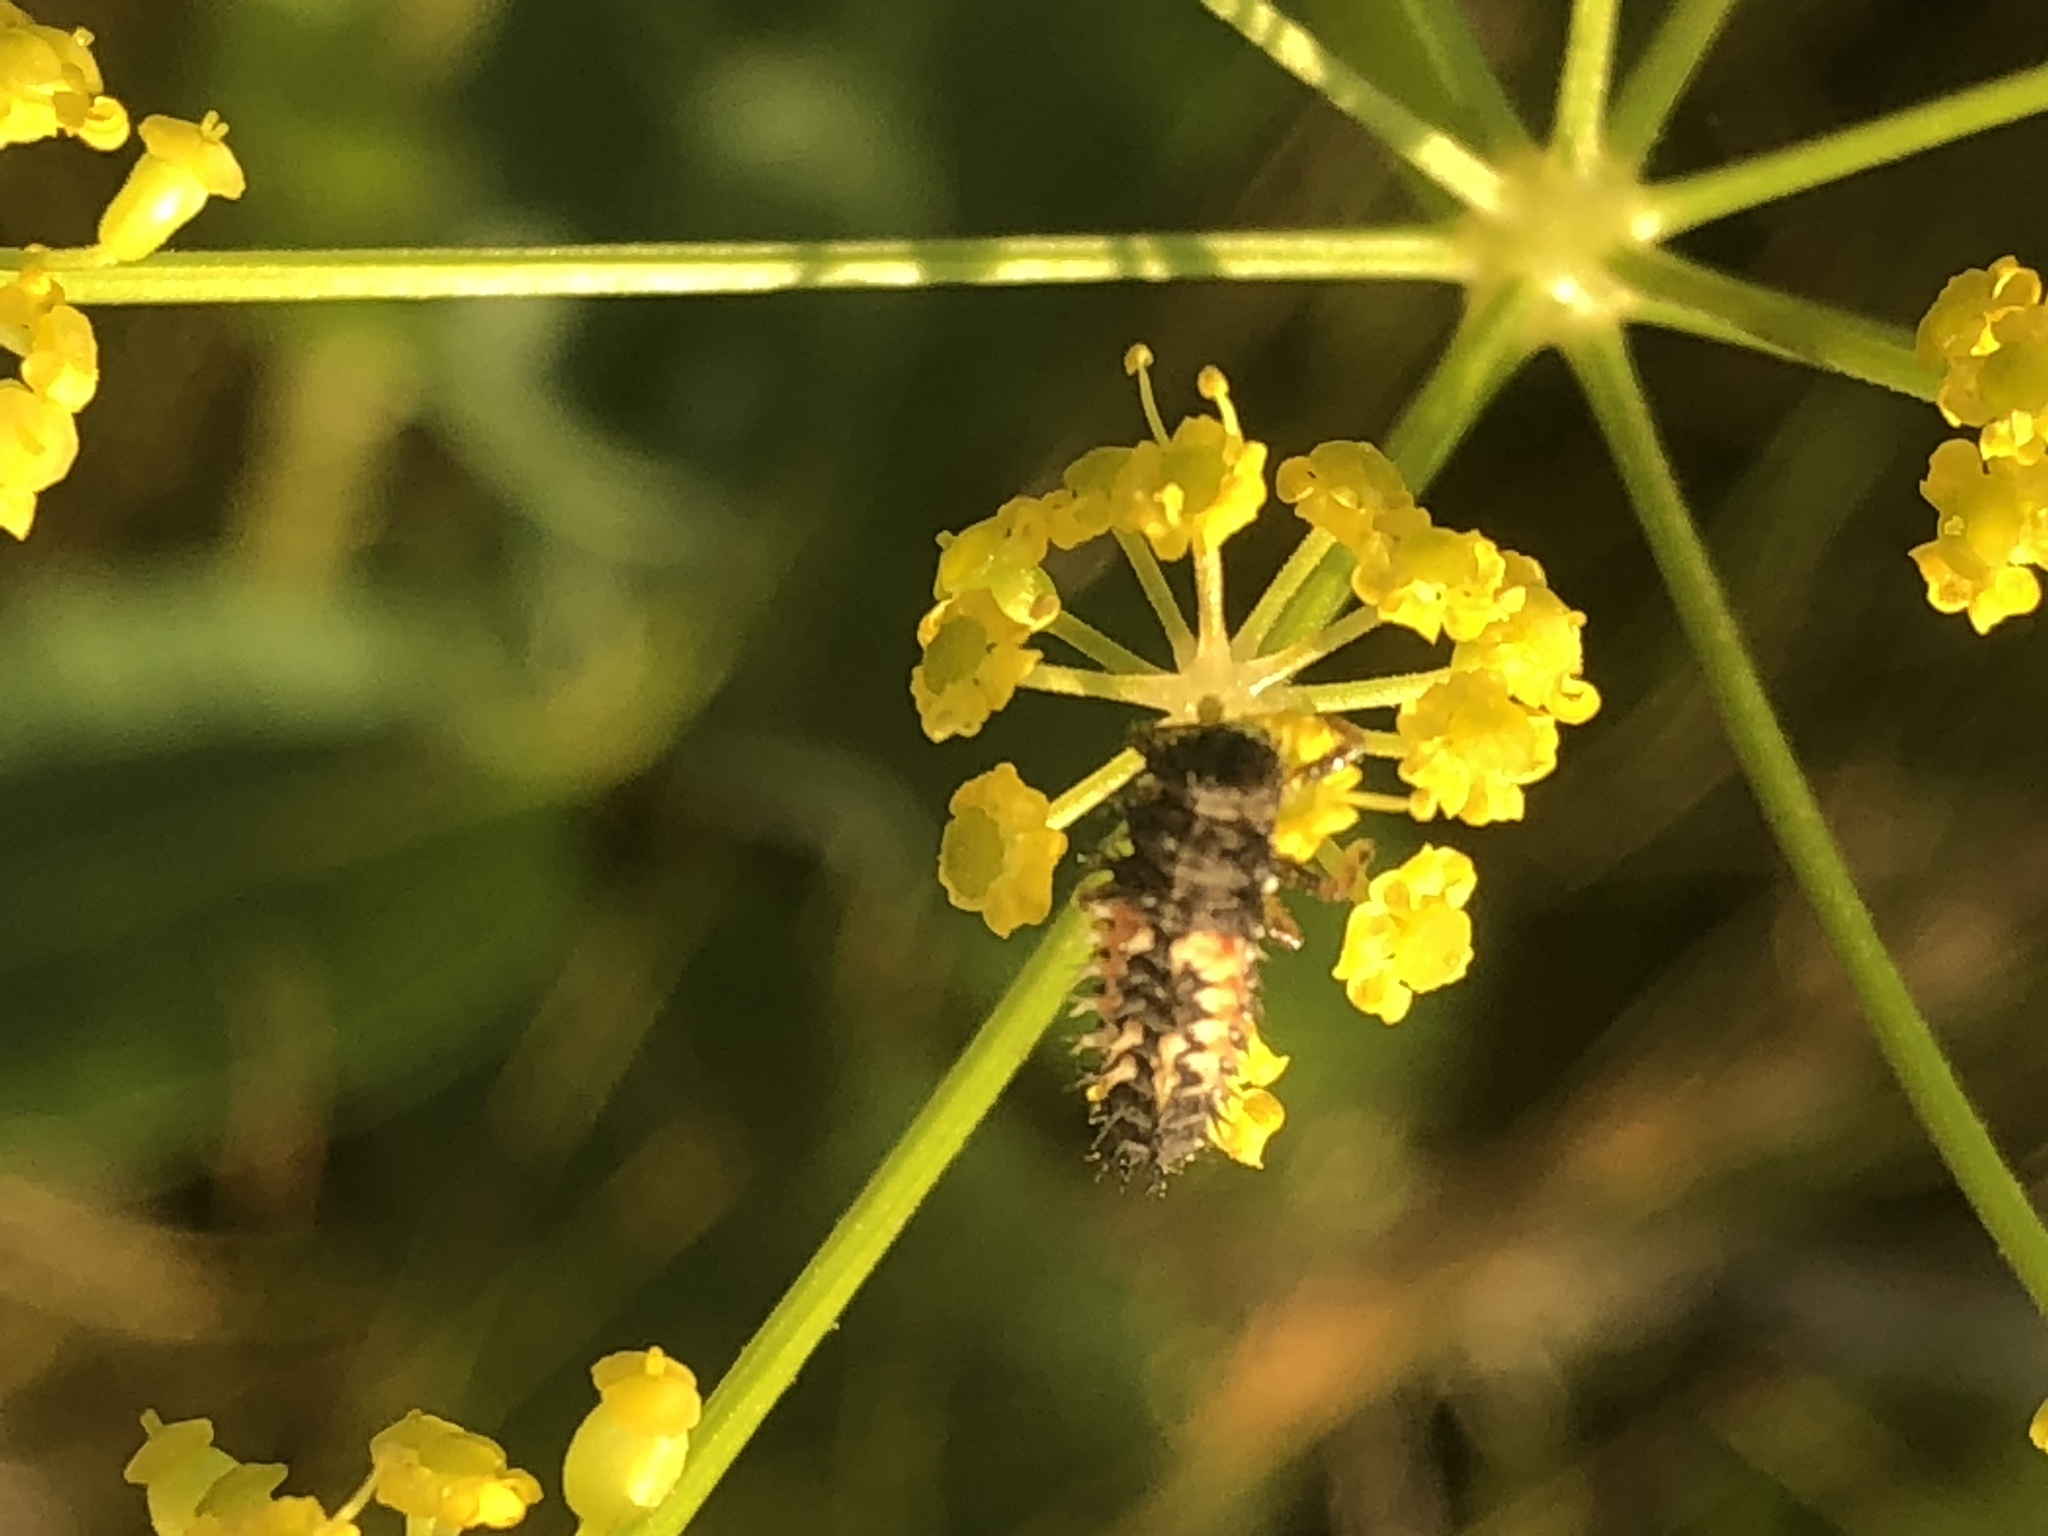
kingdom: Animalia
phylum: Arthropoda
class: Insecta
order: Coleoptera
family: Coccinellidae
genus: Harmonia
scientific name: Harmonia axyridis
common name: Harlequin ladybird
